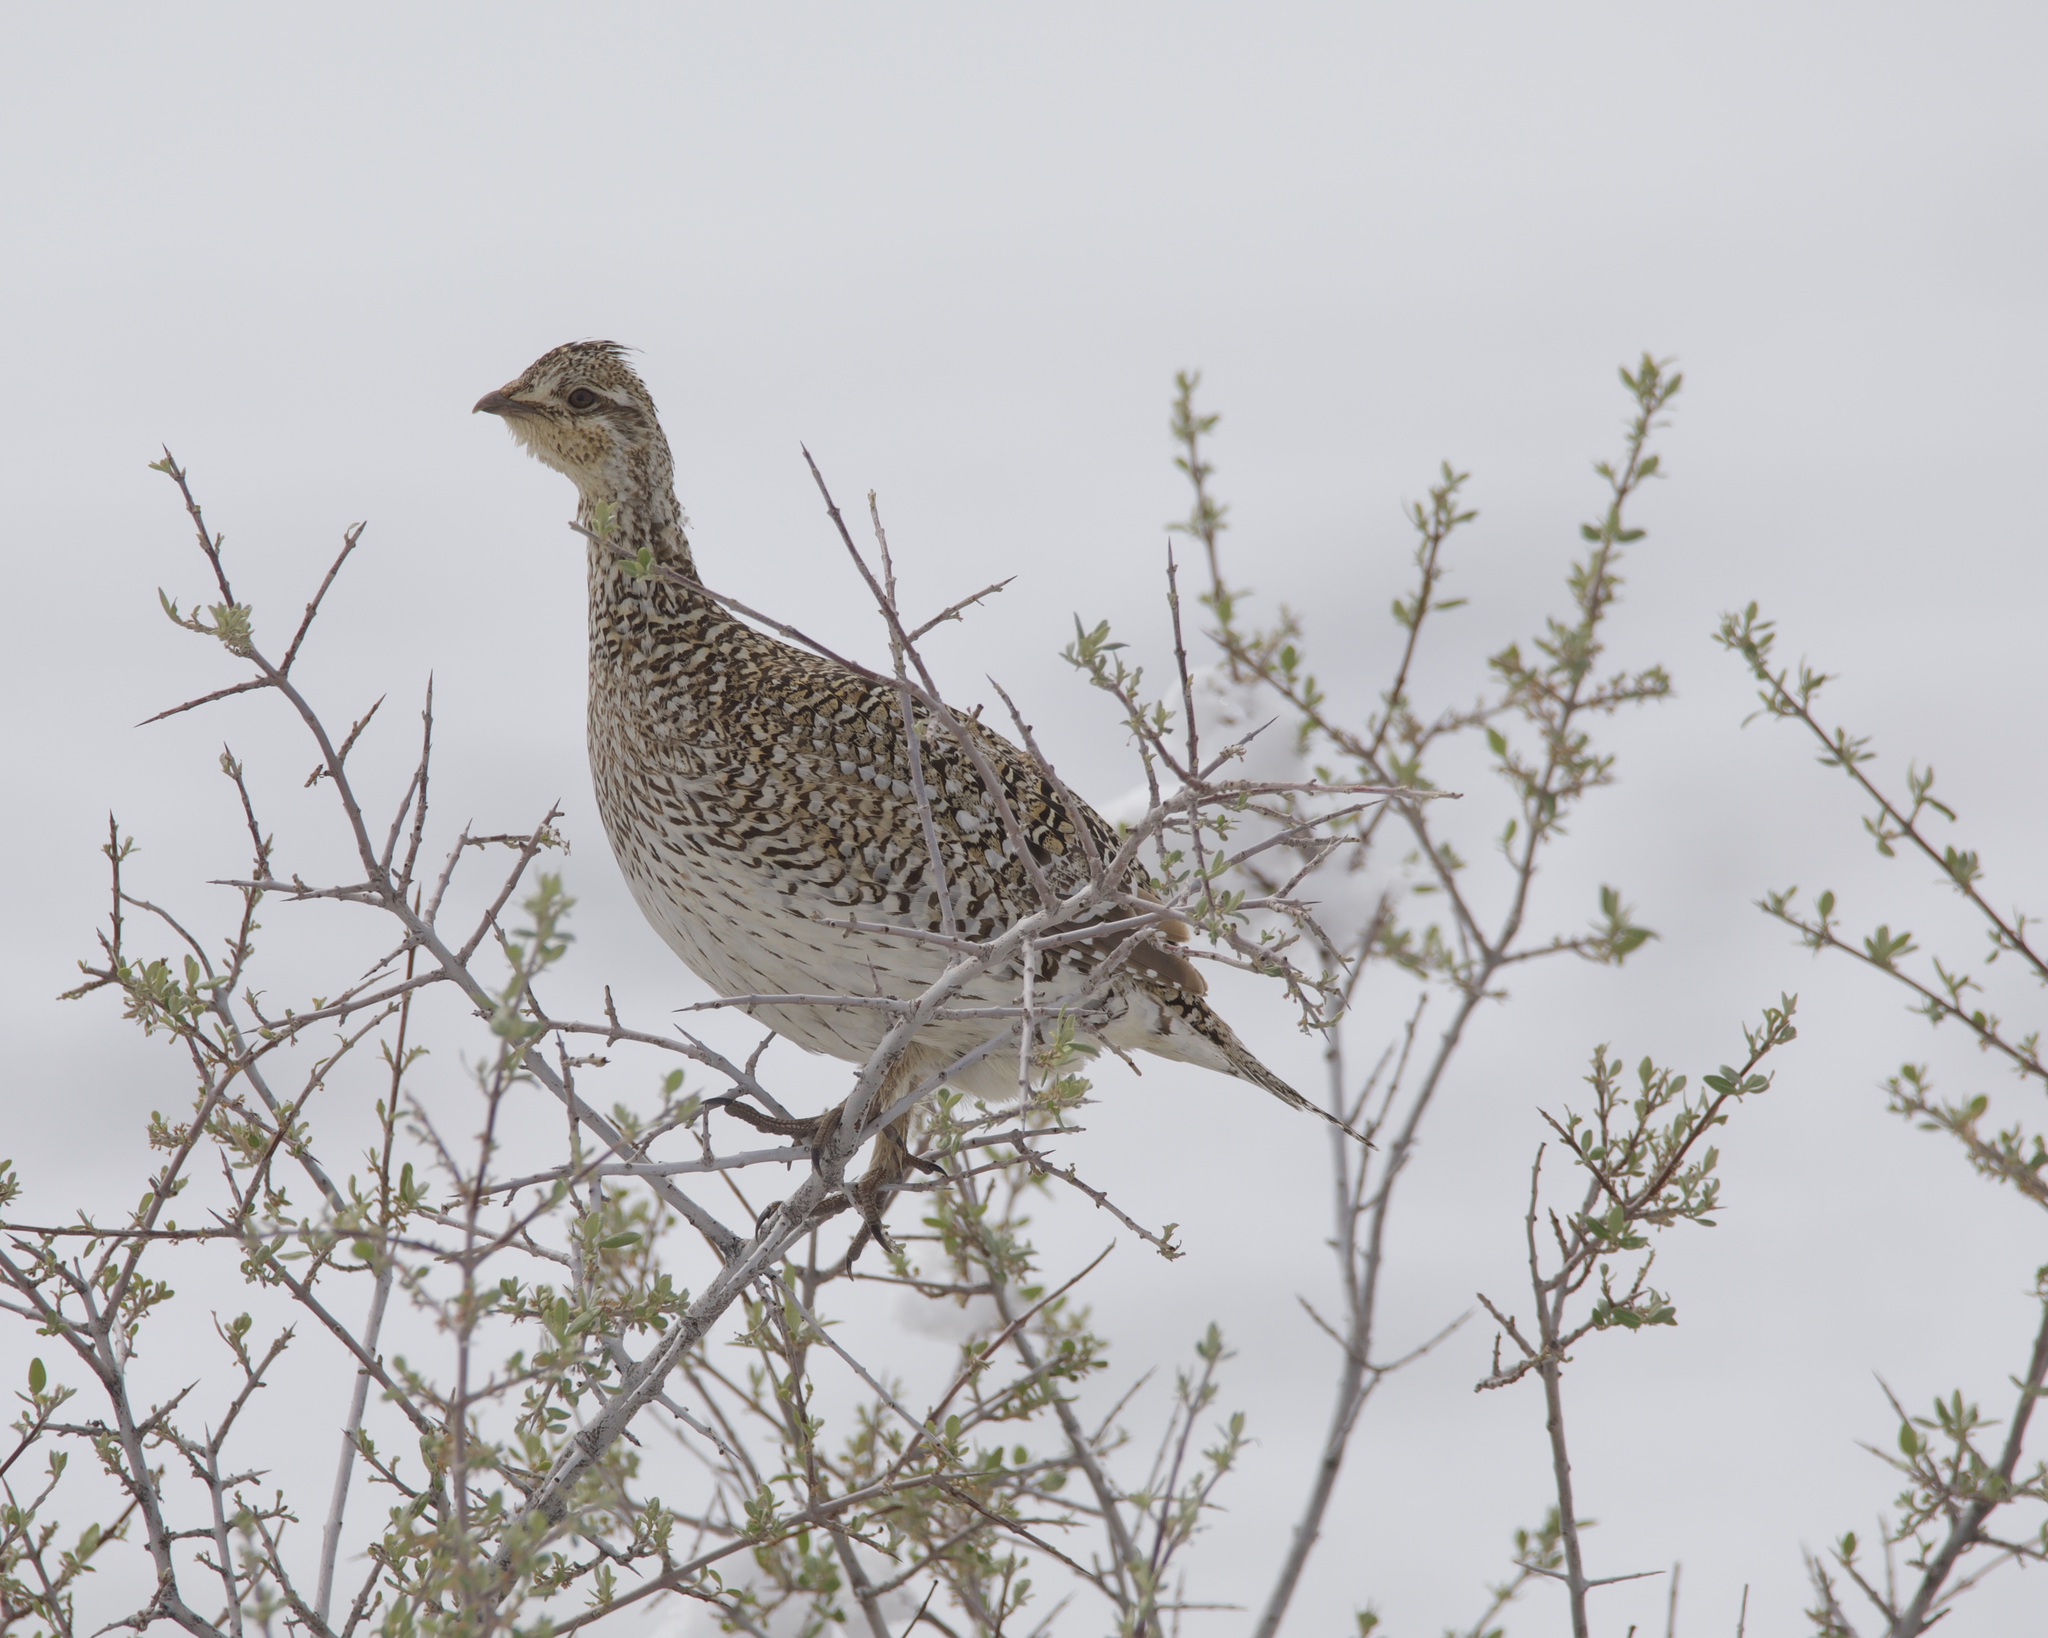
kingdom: Animalia
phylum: Chordata
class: Aves
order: Galliformes
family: Phasianidae
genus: Tympanuchus
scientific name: Tympanuchus phasianellus
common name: Sharp-tailed grouse
